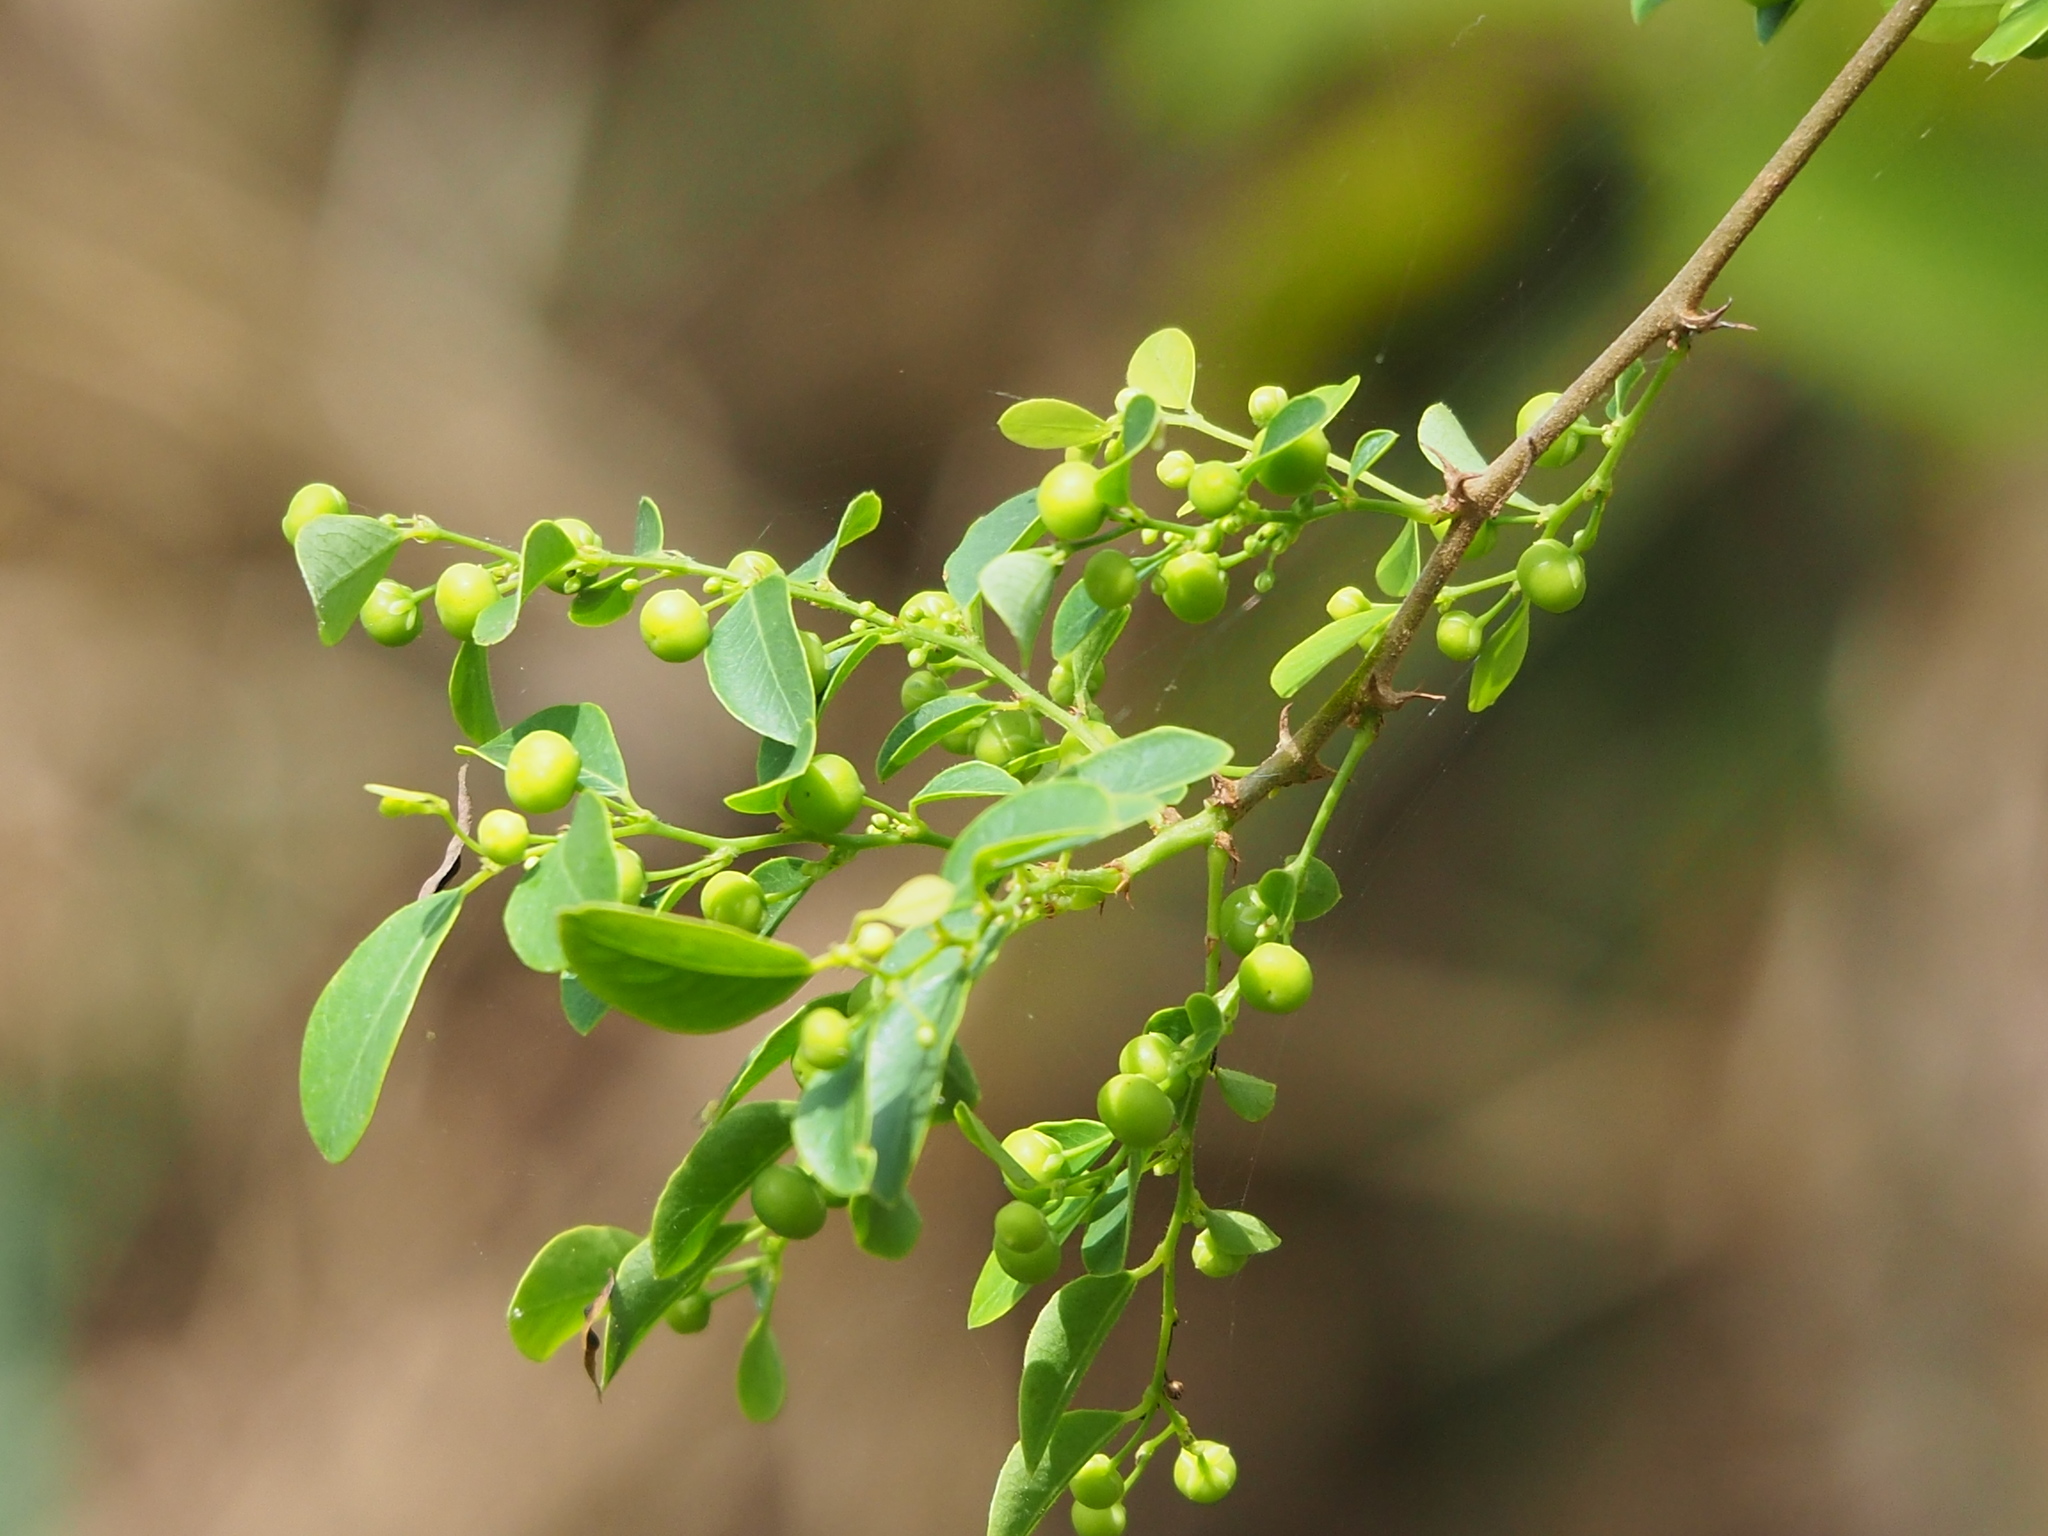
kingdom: Plantae
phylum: Tracheophyta
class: Magnoliopsida
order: Malpighiales
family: Phyllanthaceae
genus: Phyllanthus
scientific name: Phyllanthus reticulatus
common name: Potato bush
